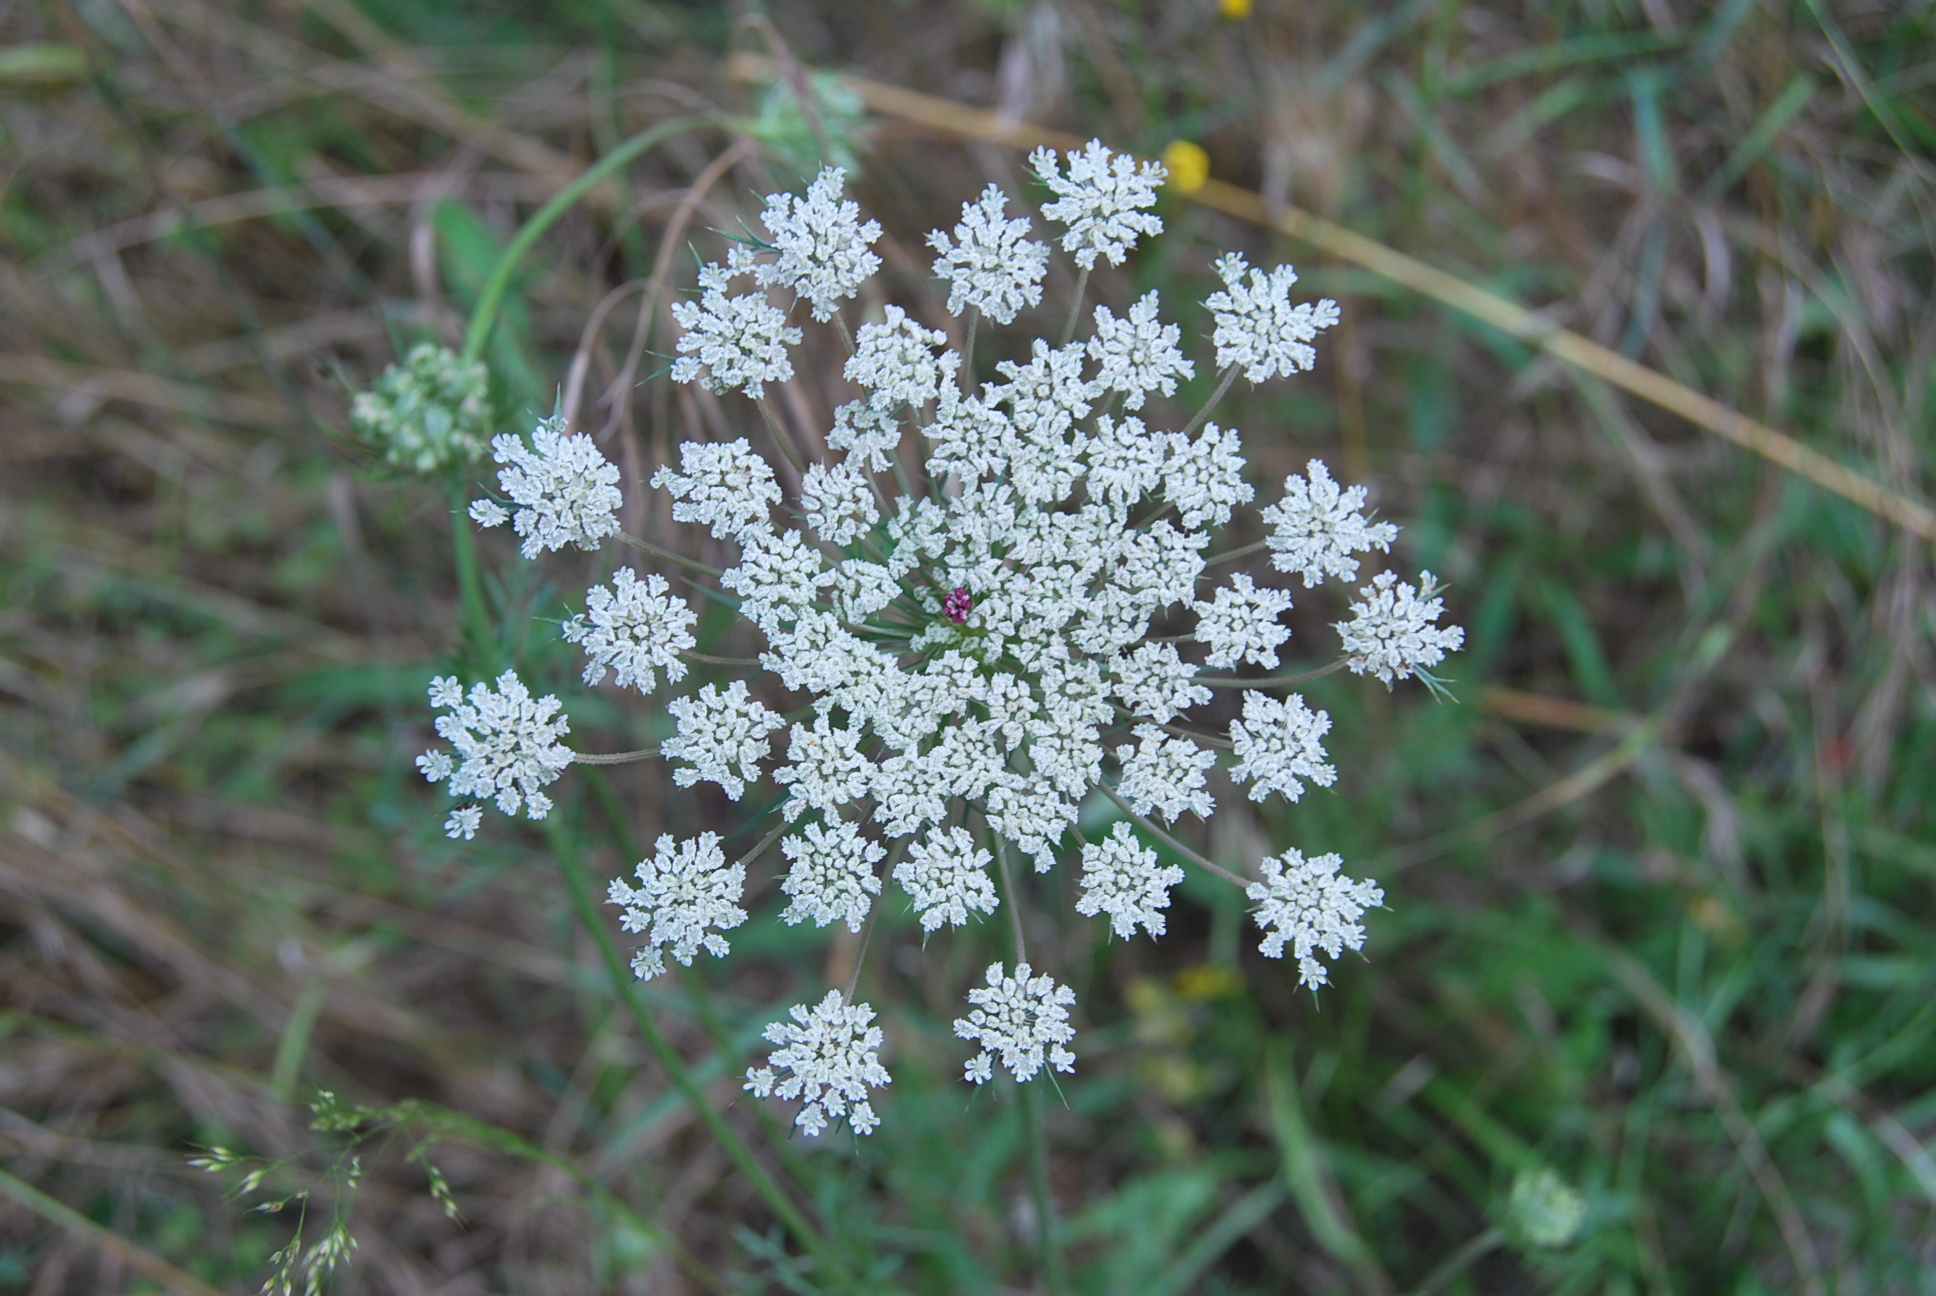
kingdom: Plantae
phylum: Tracheophyta
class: Magnoliopsida
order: Apiales
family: Apiaceae
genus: Daucus
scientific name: Daucus carota
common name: Wild carrot
